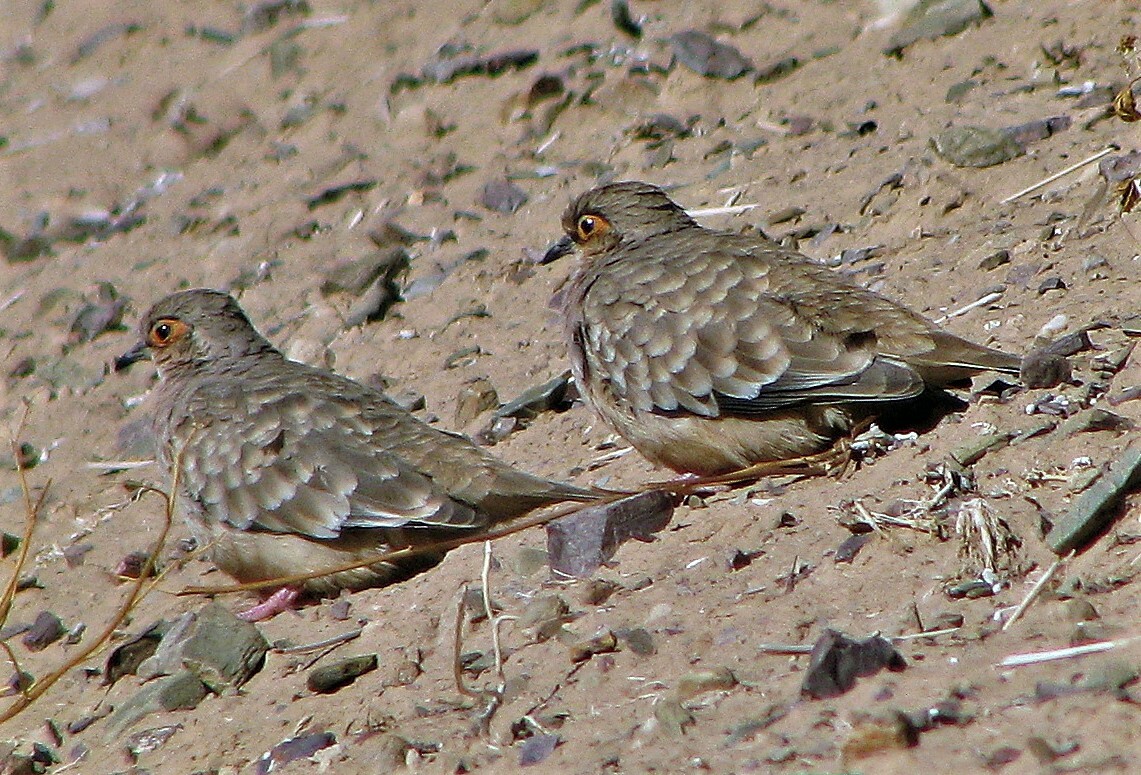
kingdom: Animalia
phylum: Chordata
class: Aves
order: Columbiformes
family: Columbidae
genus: Metriopelia
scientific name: Metriopelia ceciliae
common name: Bare-faced ground dove
